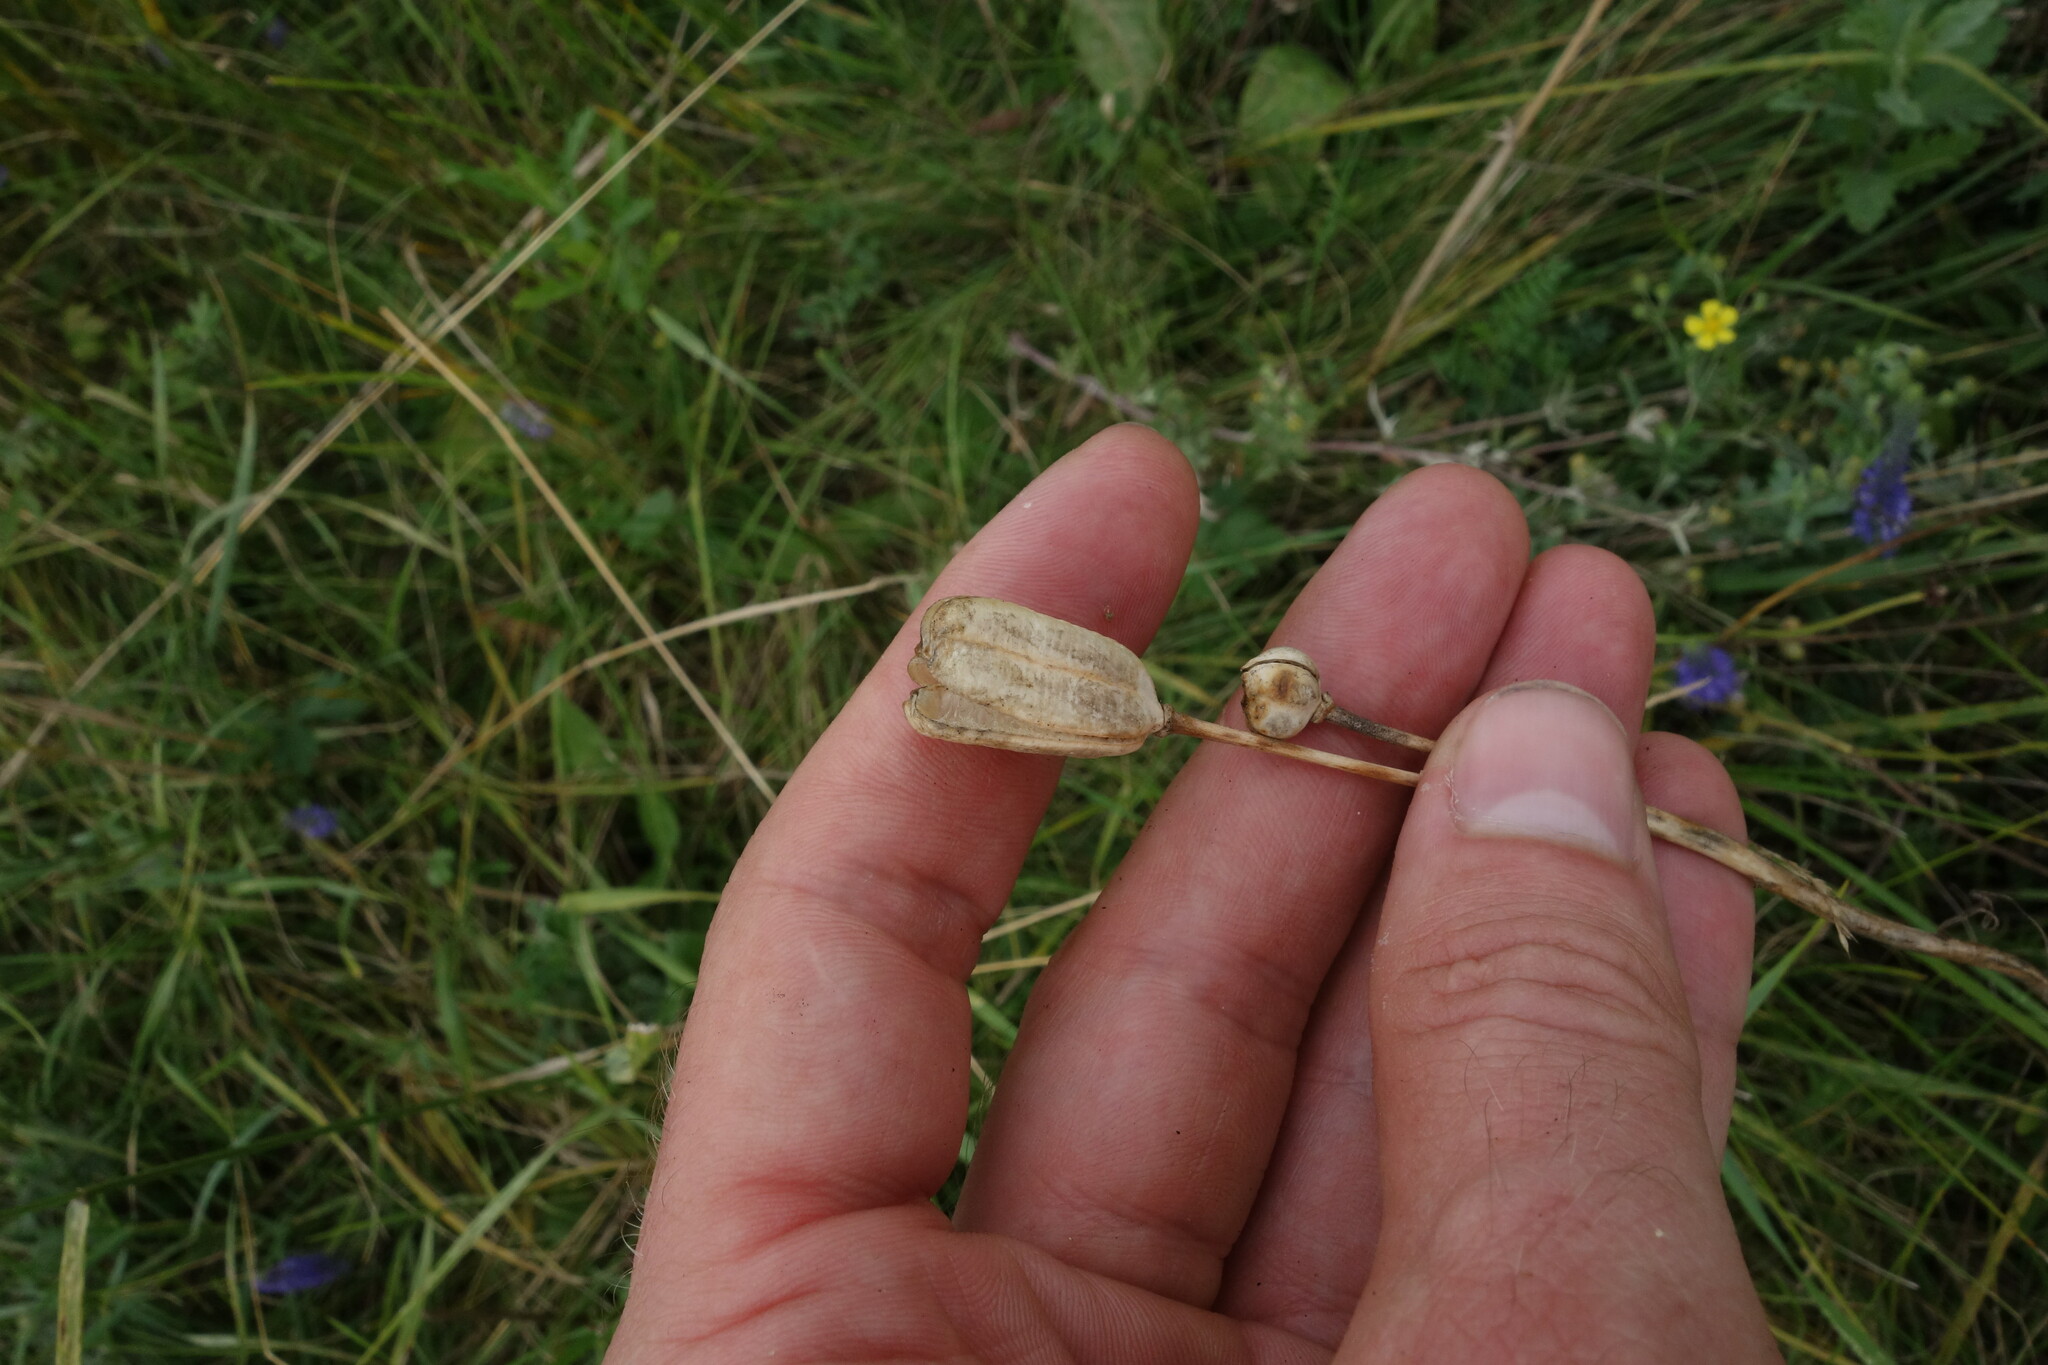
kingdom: Plantae
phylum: Tracheophyta
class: Liliopsida
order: Liliales
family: Liliaceae
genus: Fritillaria
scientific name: Fritillaria meleagroides
